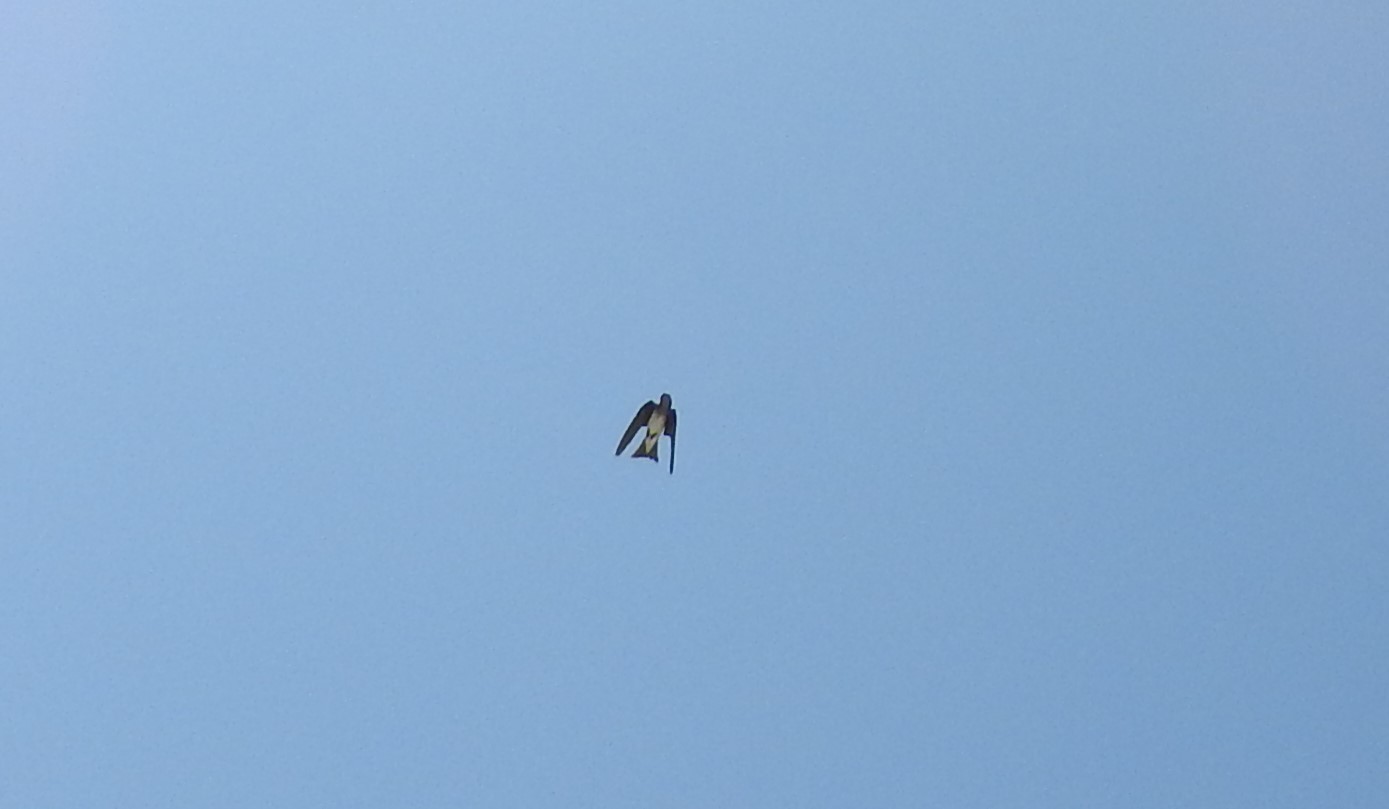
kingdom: Animalia
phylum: Chordata
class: Aves
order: Passeriformes
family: Hirundinidae
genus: Stelgidopteryx
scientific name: Stelgidopteryx serripennis
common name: Northern rough-winged swallow
